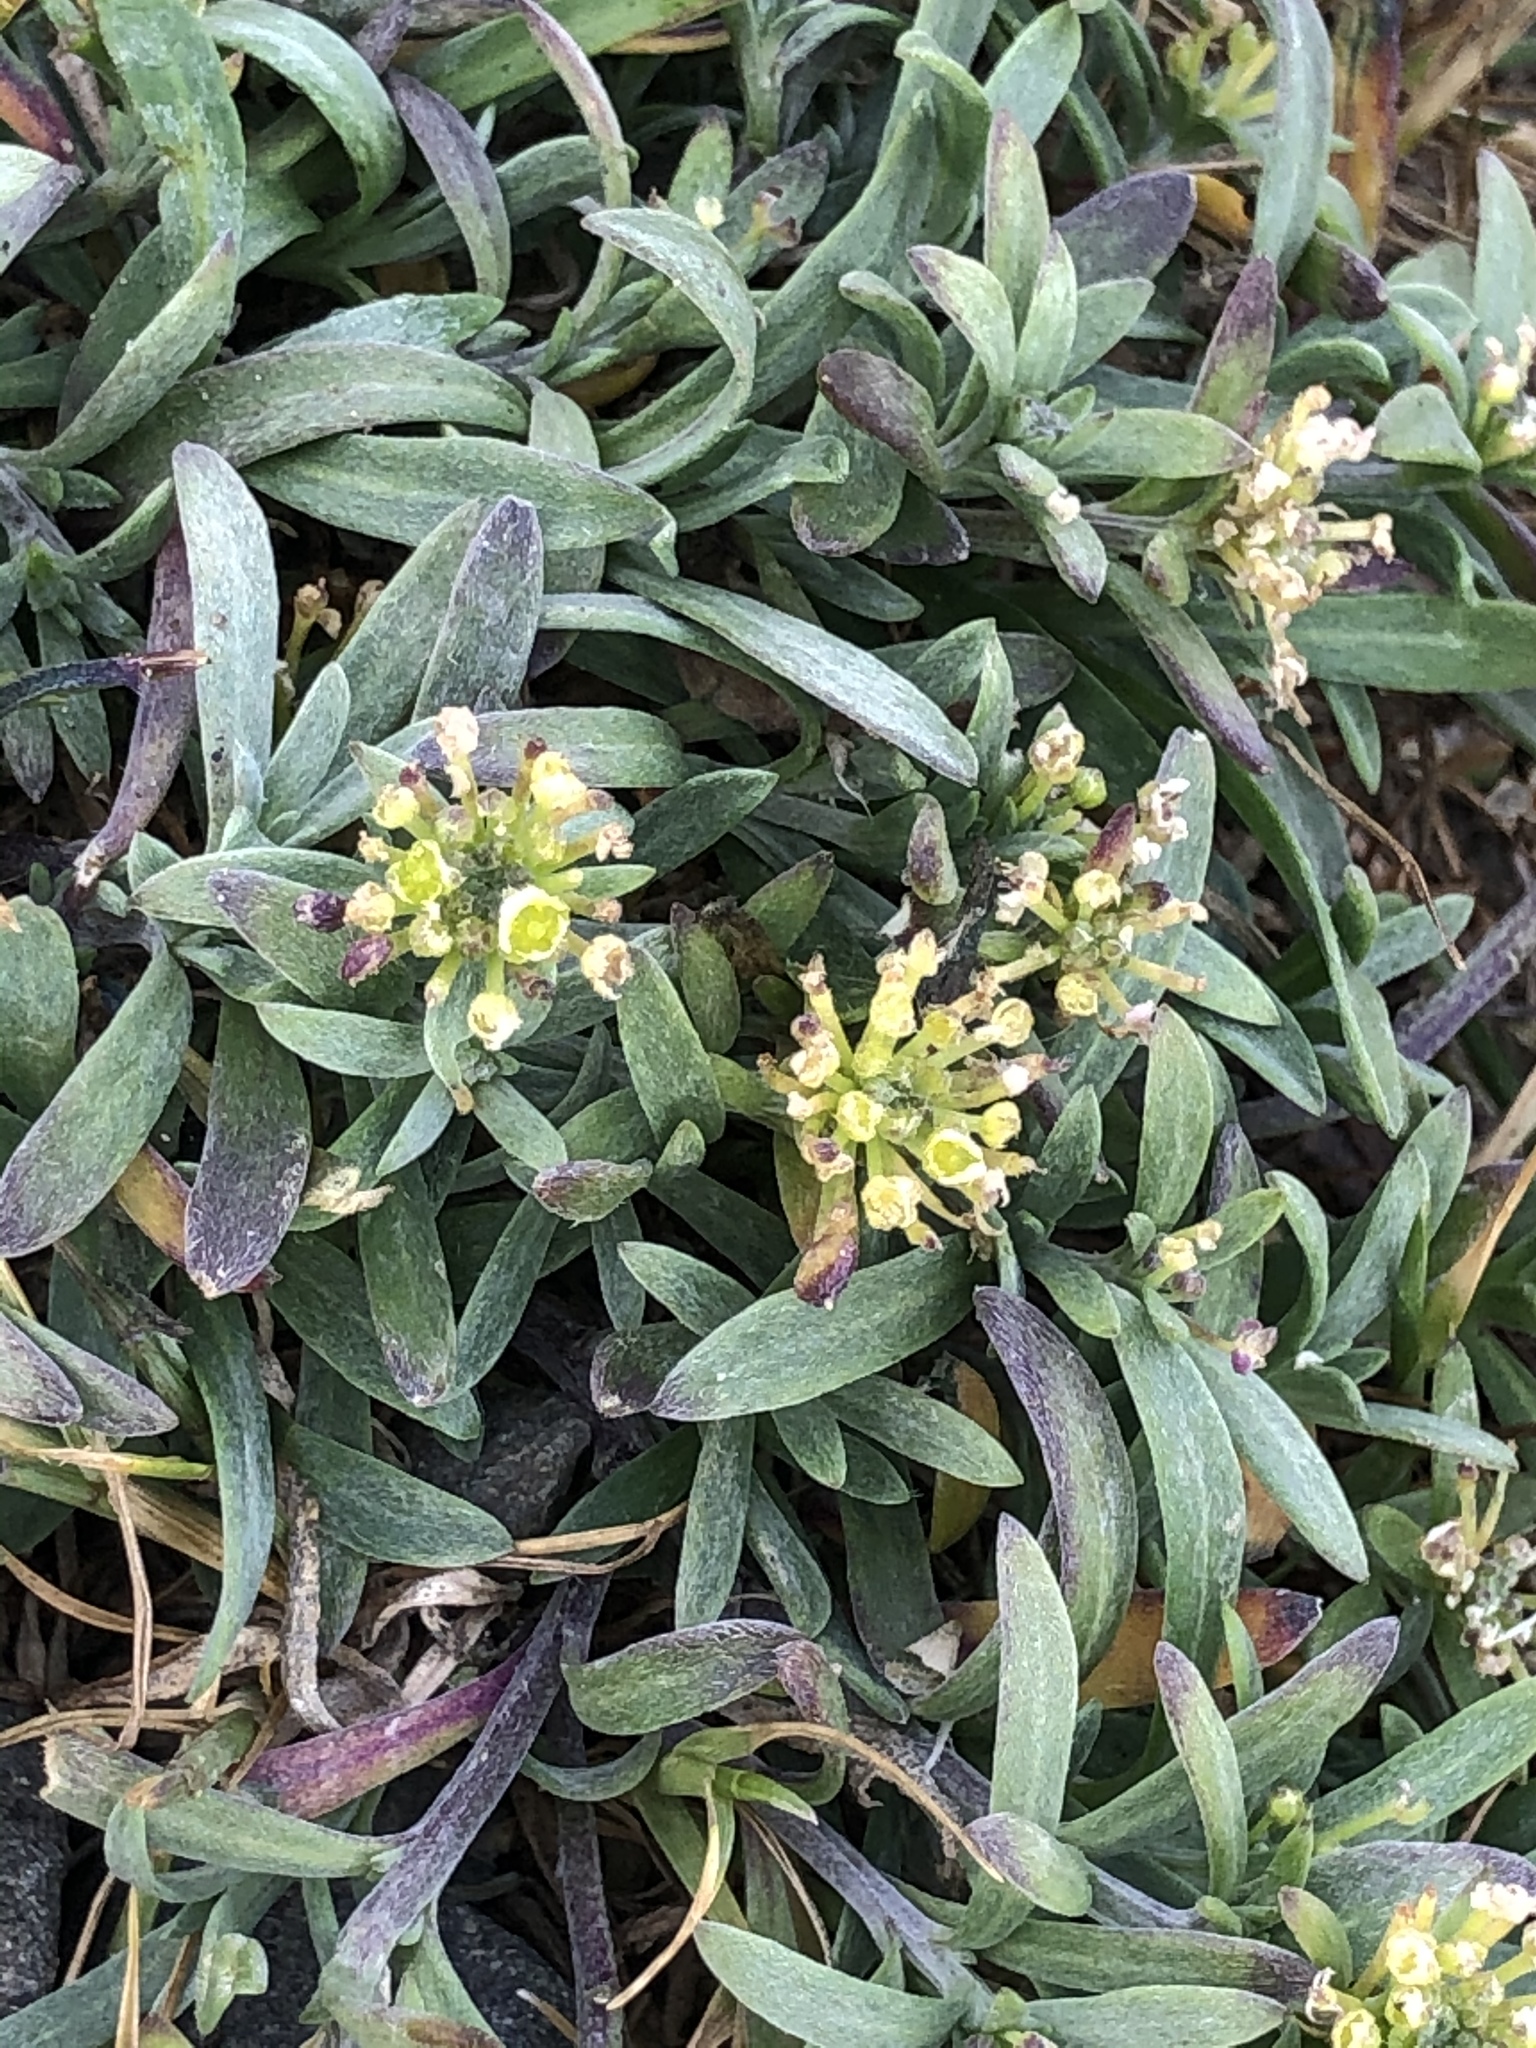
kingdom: Plantae
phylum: Tracheophyta
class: Magnoliopsida
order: Brassicales
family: Brassicaceae
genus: Lobularia
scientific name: Lobularia maritima
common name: Sweet alison
